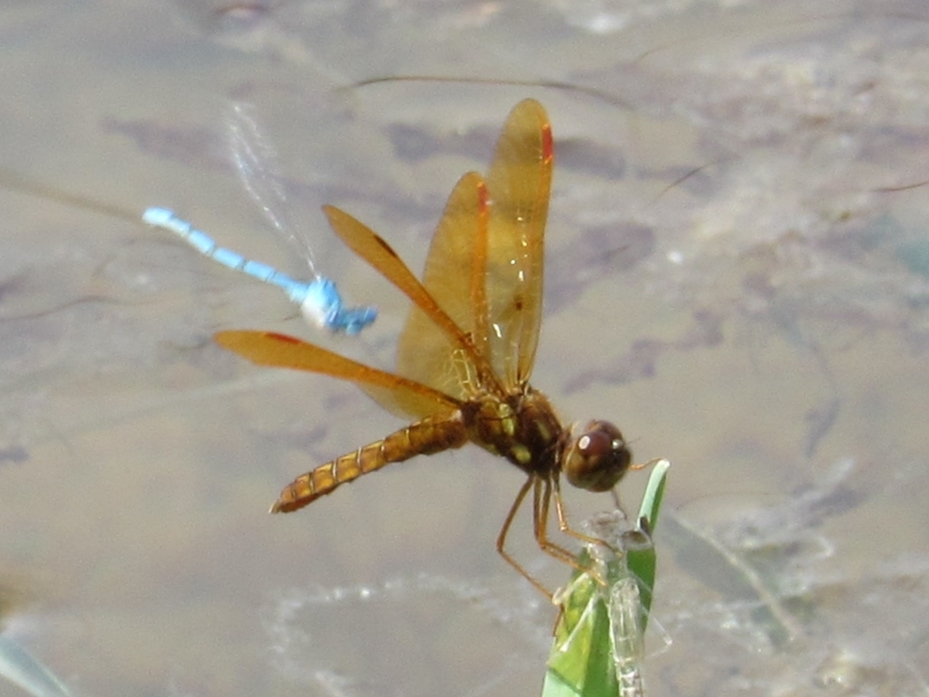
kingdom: Animalia
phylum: Arthropoda
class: Insecta
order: Odonata
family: Libellulidae
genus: Perithemis
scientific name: Perithemis tenera
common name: Eastern amberwing
